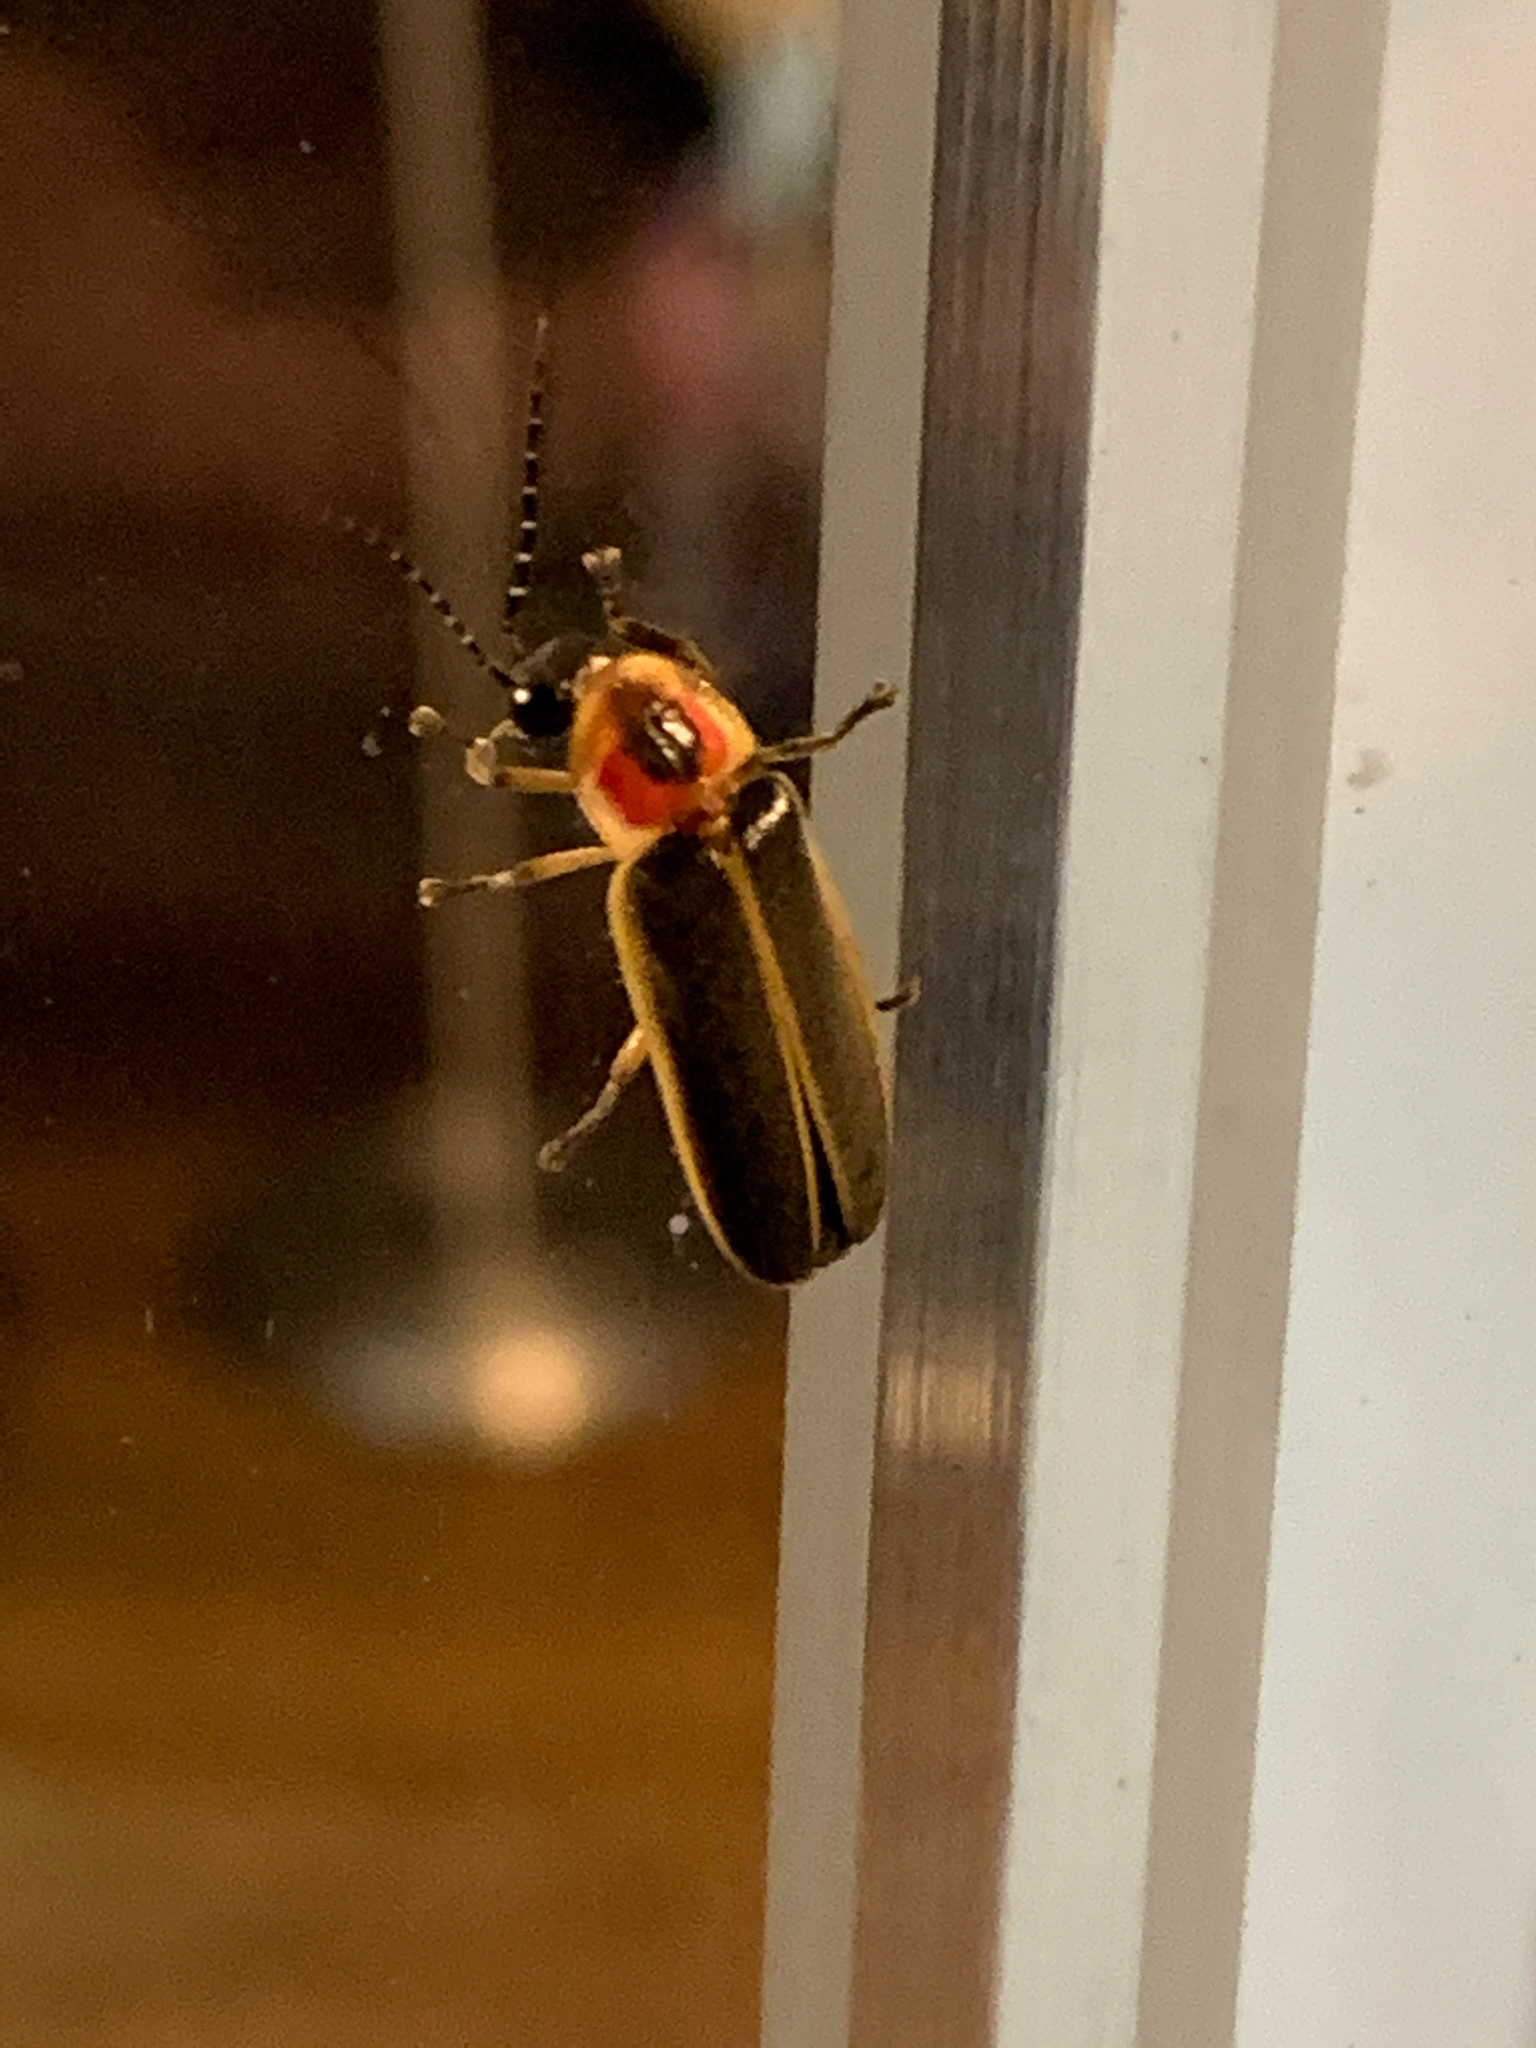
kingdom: Animalia
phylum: Arthropoda
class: Insecta
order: Coleoptera
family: Lampyridae
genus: Photinus
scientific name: Photinus pyralis
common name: Big dipper firefly
